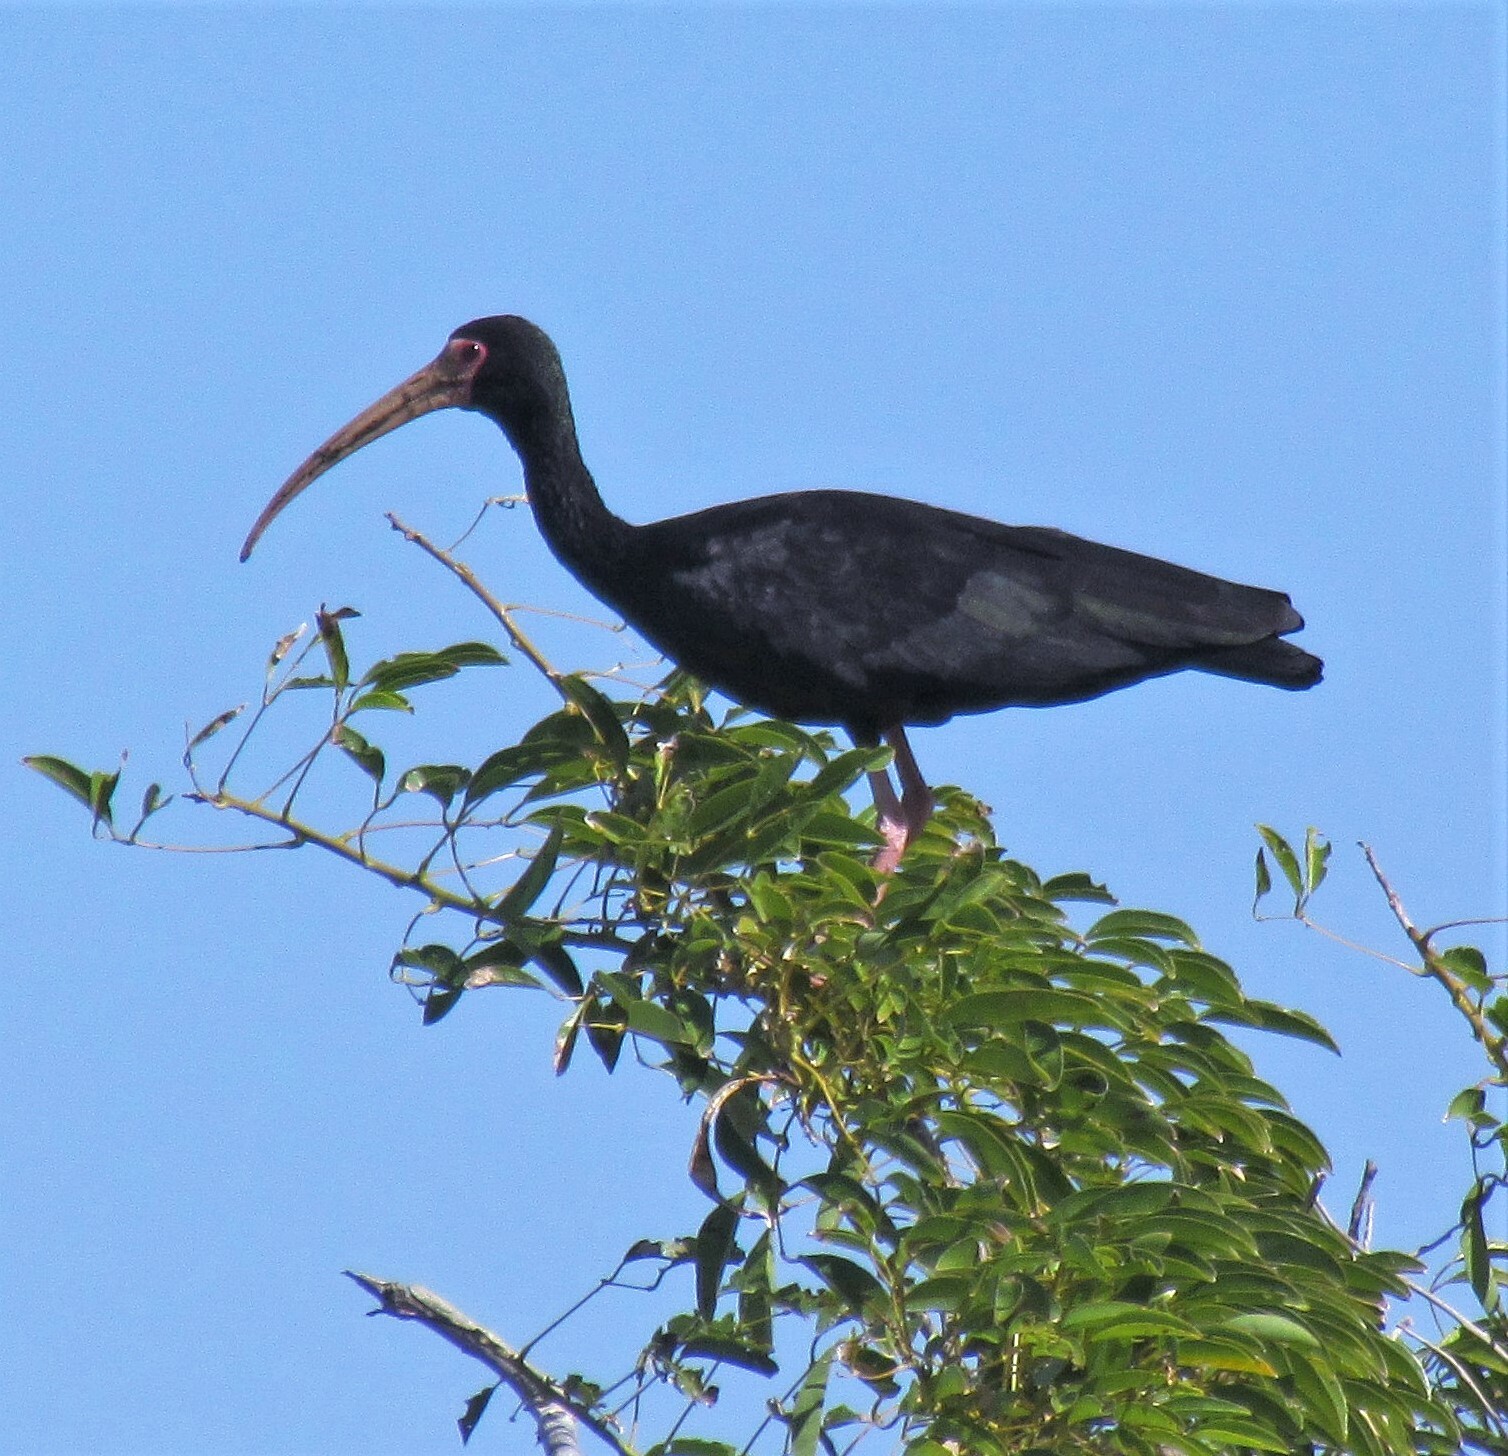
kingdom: Animalia
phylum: Chordata
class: Aves
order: Pelecaniformes
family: Threskiornithidae
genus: Phimosus
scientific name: Phimosus infuscatus
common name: Bare-faced ibis
